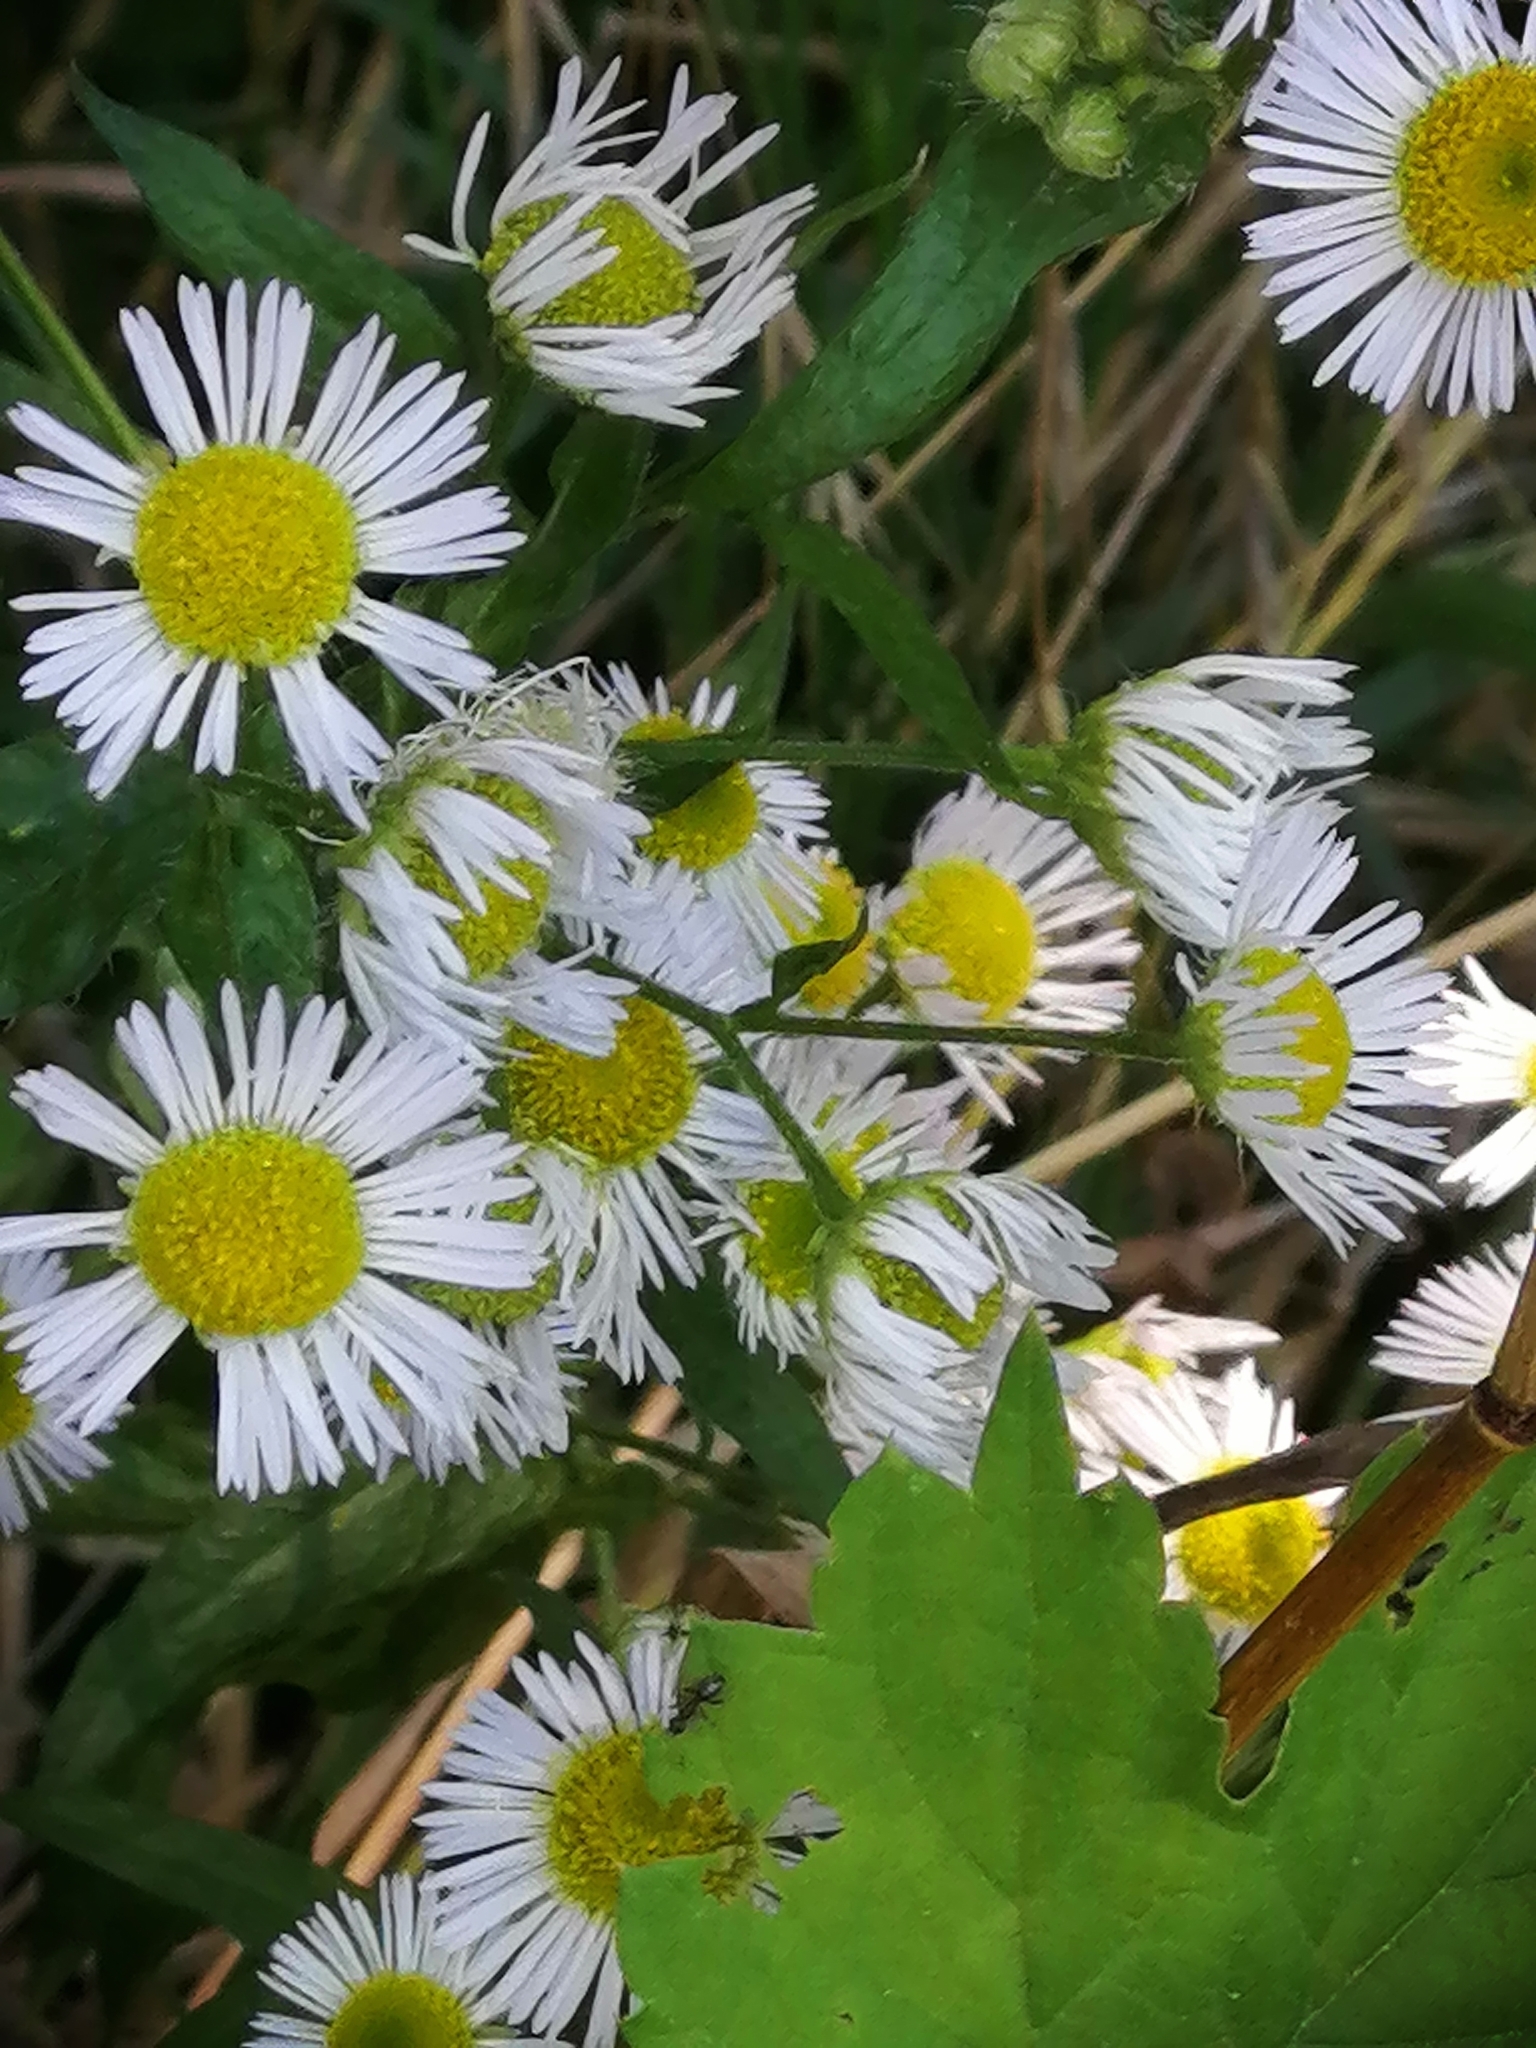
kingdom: Plantae
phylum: Tracheophyta
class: Magnoliopsida
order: Asterales
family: Asteraceae
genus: Erigeron
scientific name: Erigeron annuus
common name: Tall fleabane
